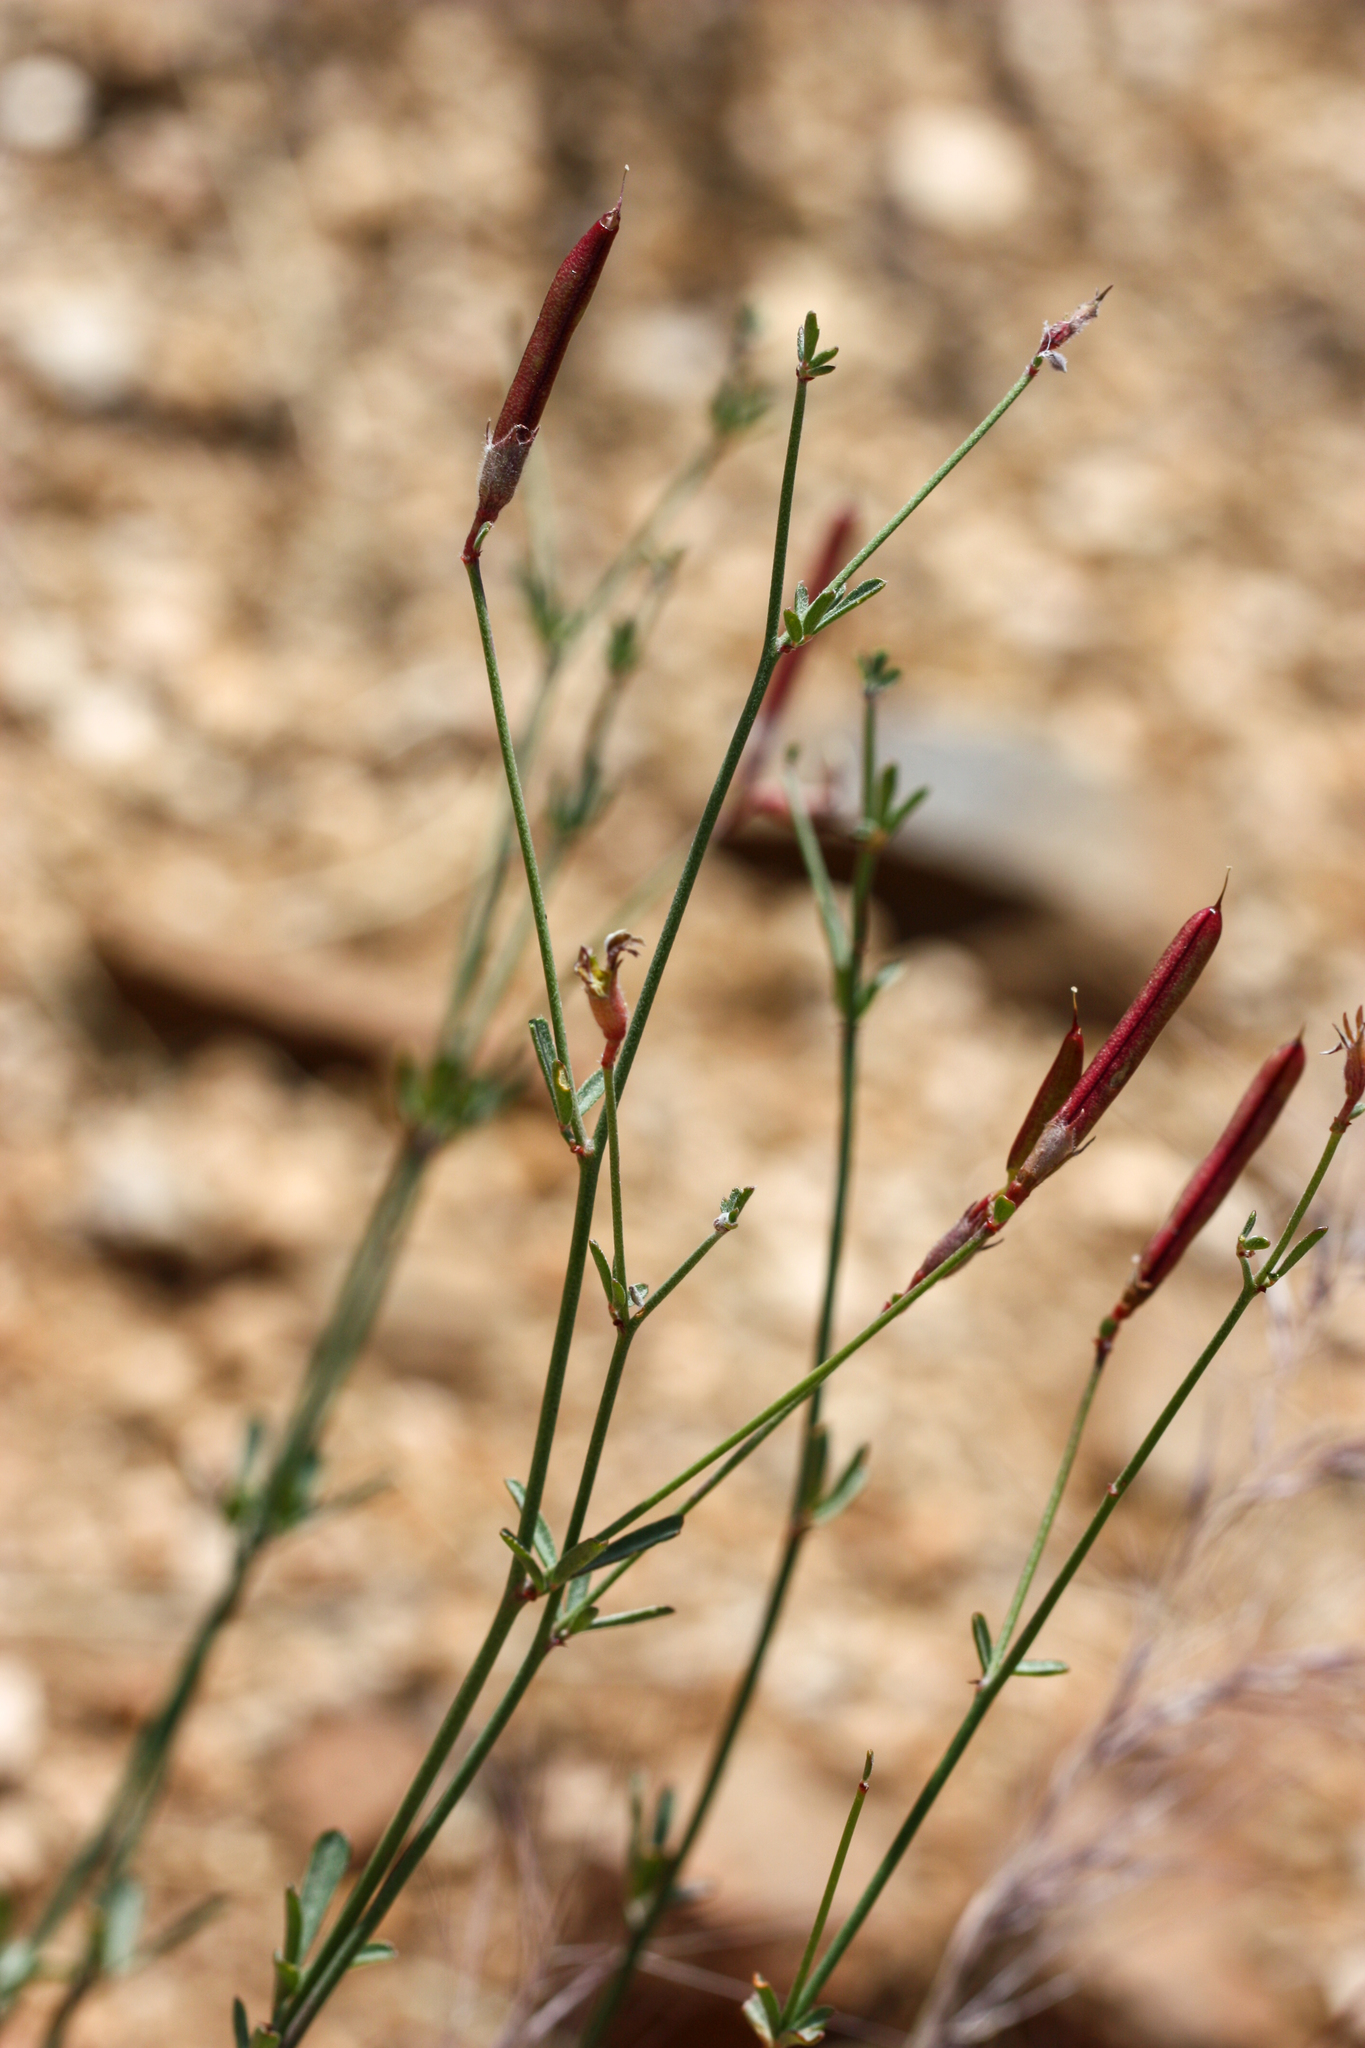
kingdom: Plantae
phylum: Tracheophyta
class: Magnoliopsida
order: Fabales
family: Fabaceae
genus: Acmispon
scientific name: Acmispon rigidus
